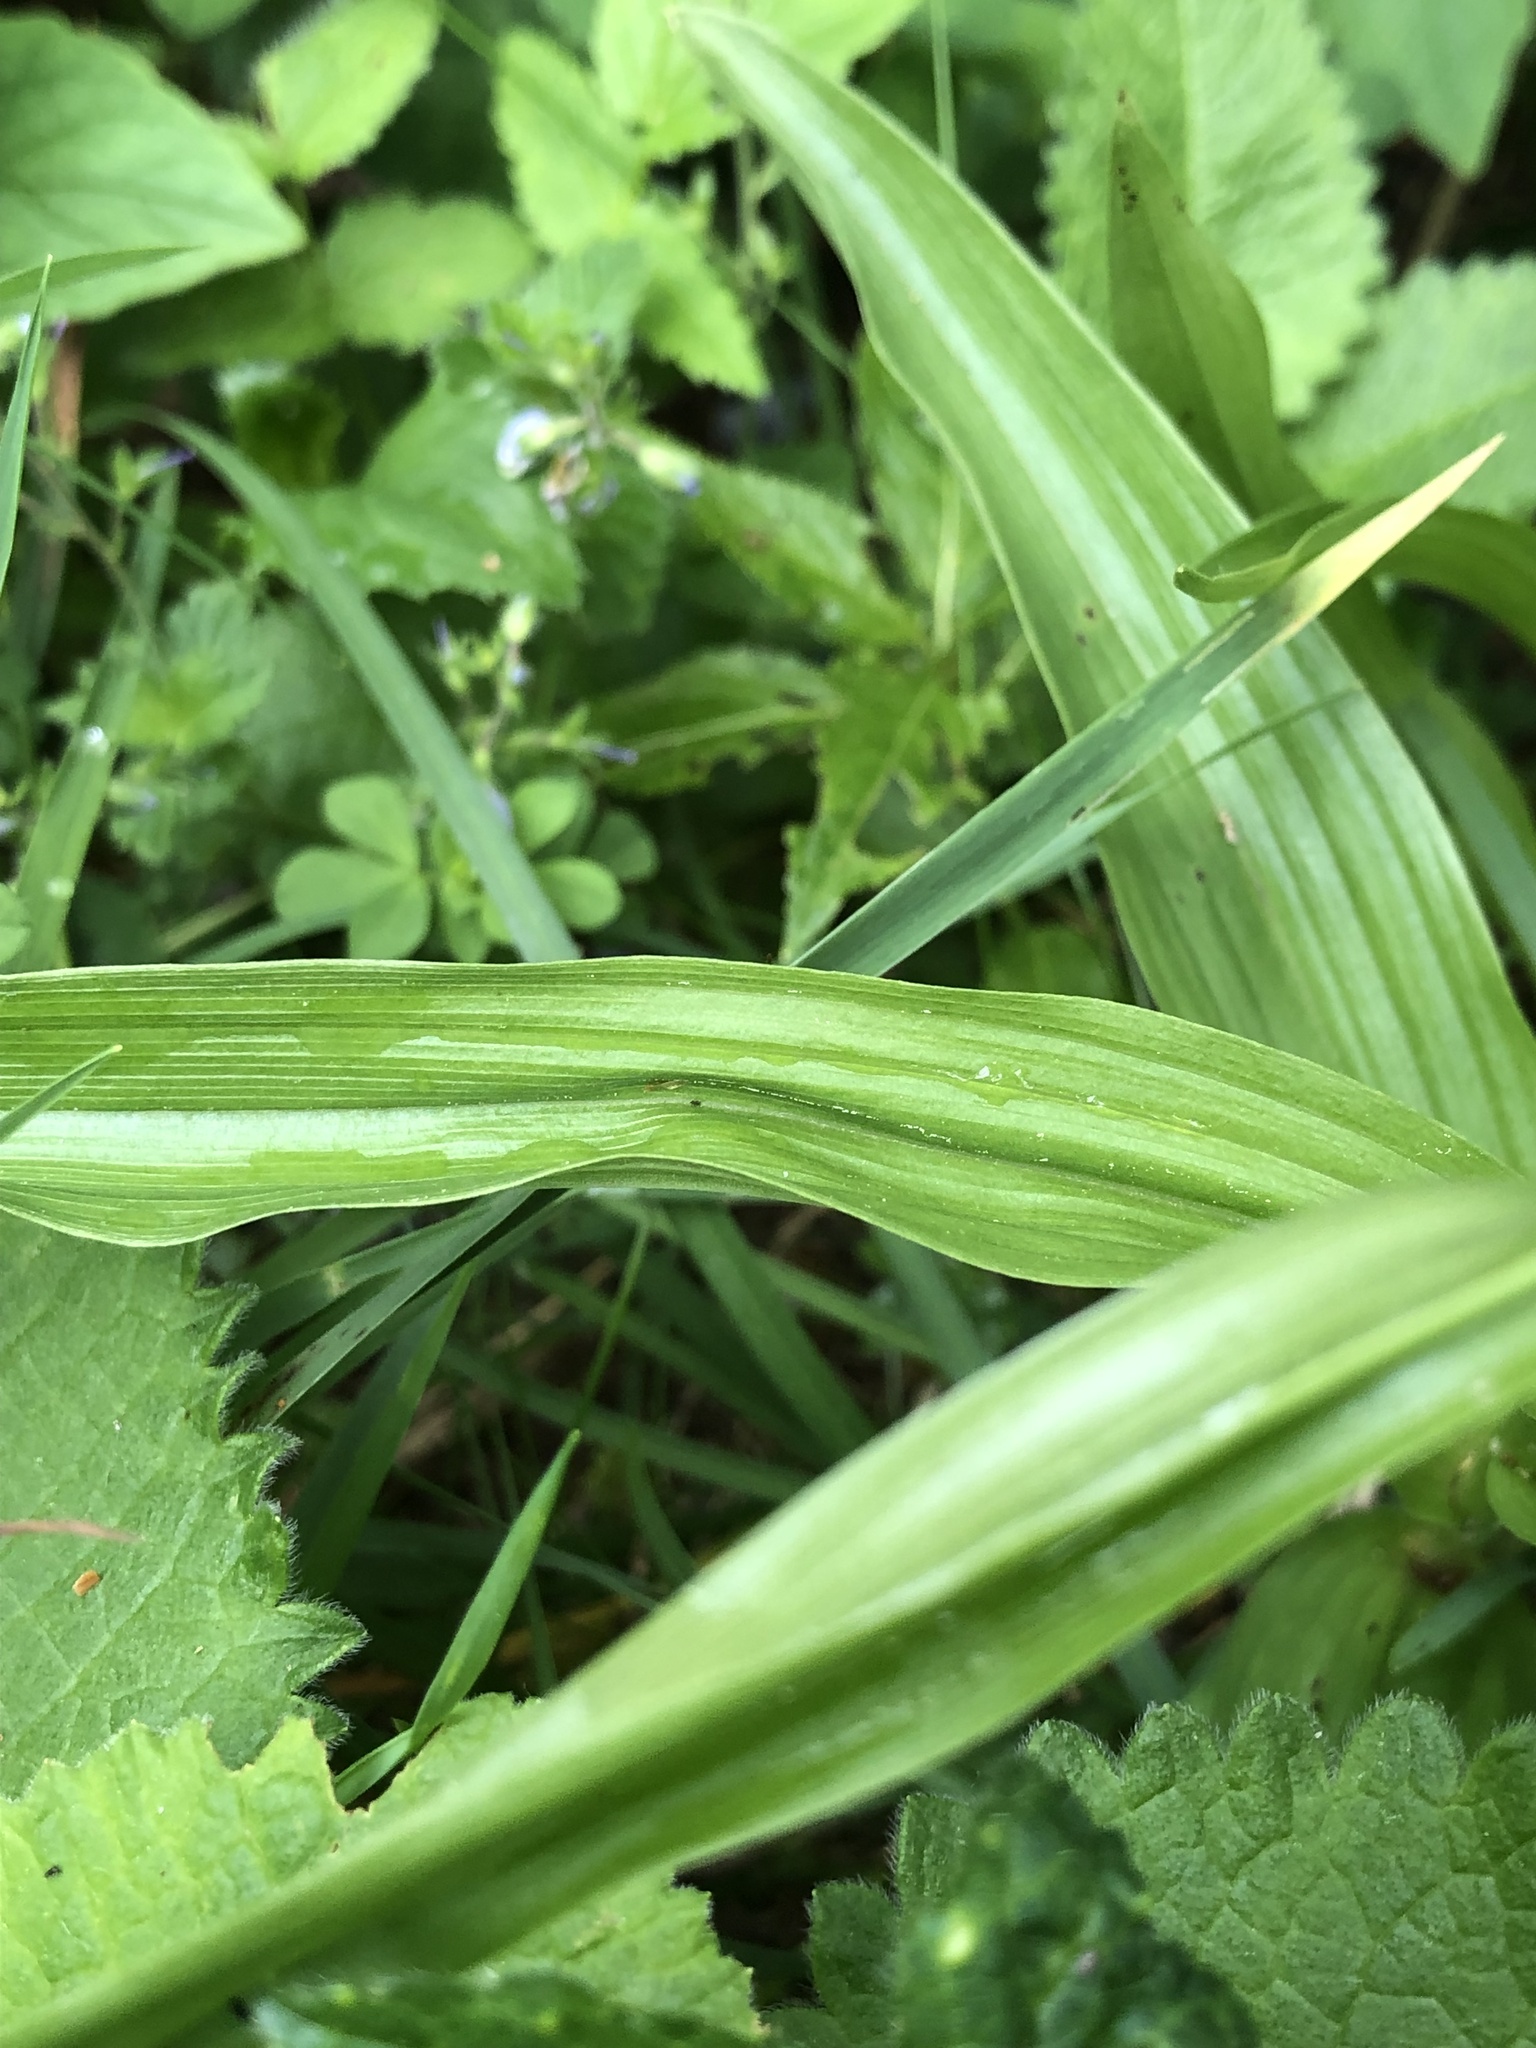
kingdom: Plantae
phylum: Tracheophyta
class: Liliopsida
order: Asparagales
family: Orchidaceae
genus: Cephalanthera
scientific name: Cephalanthera longifolia
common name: Narrow-leaved helleborine
